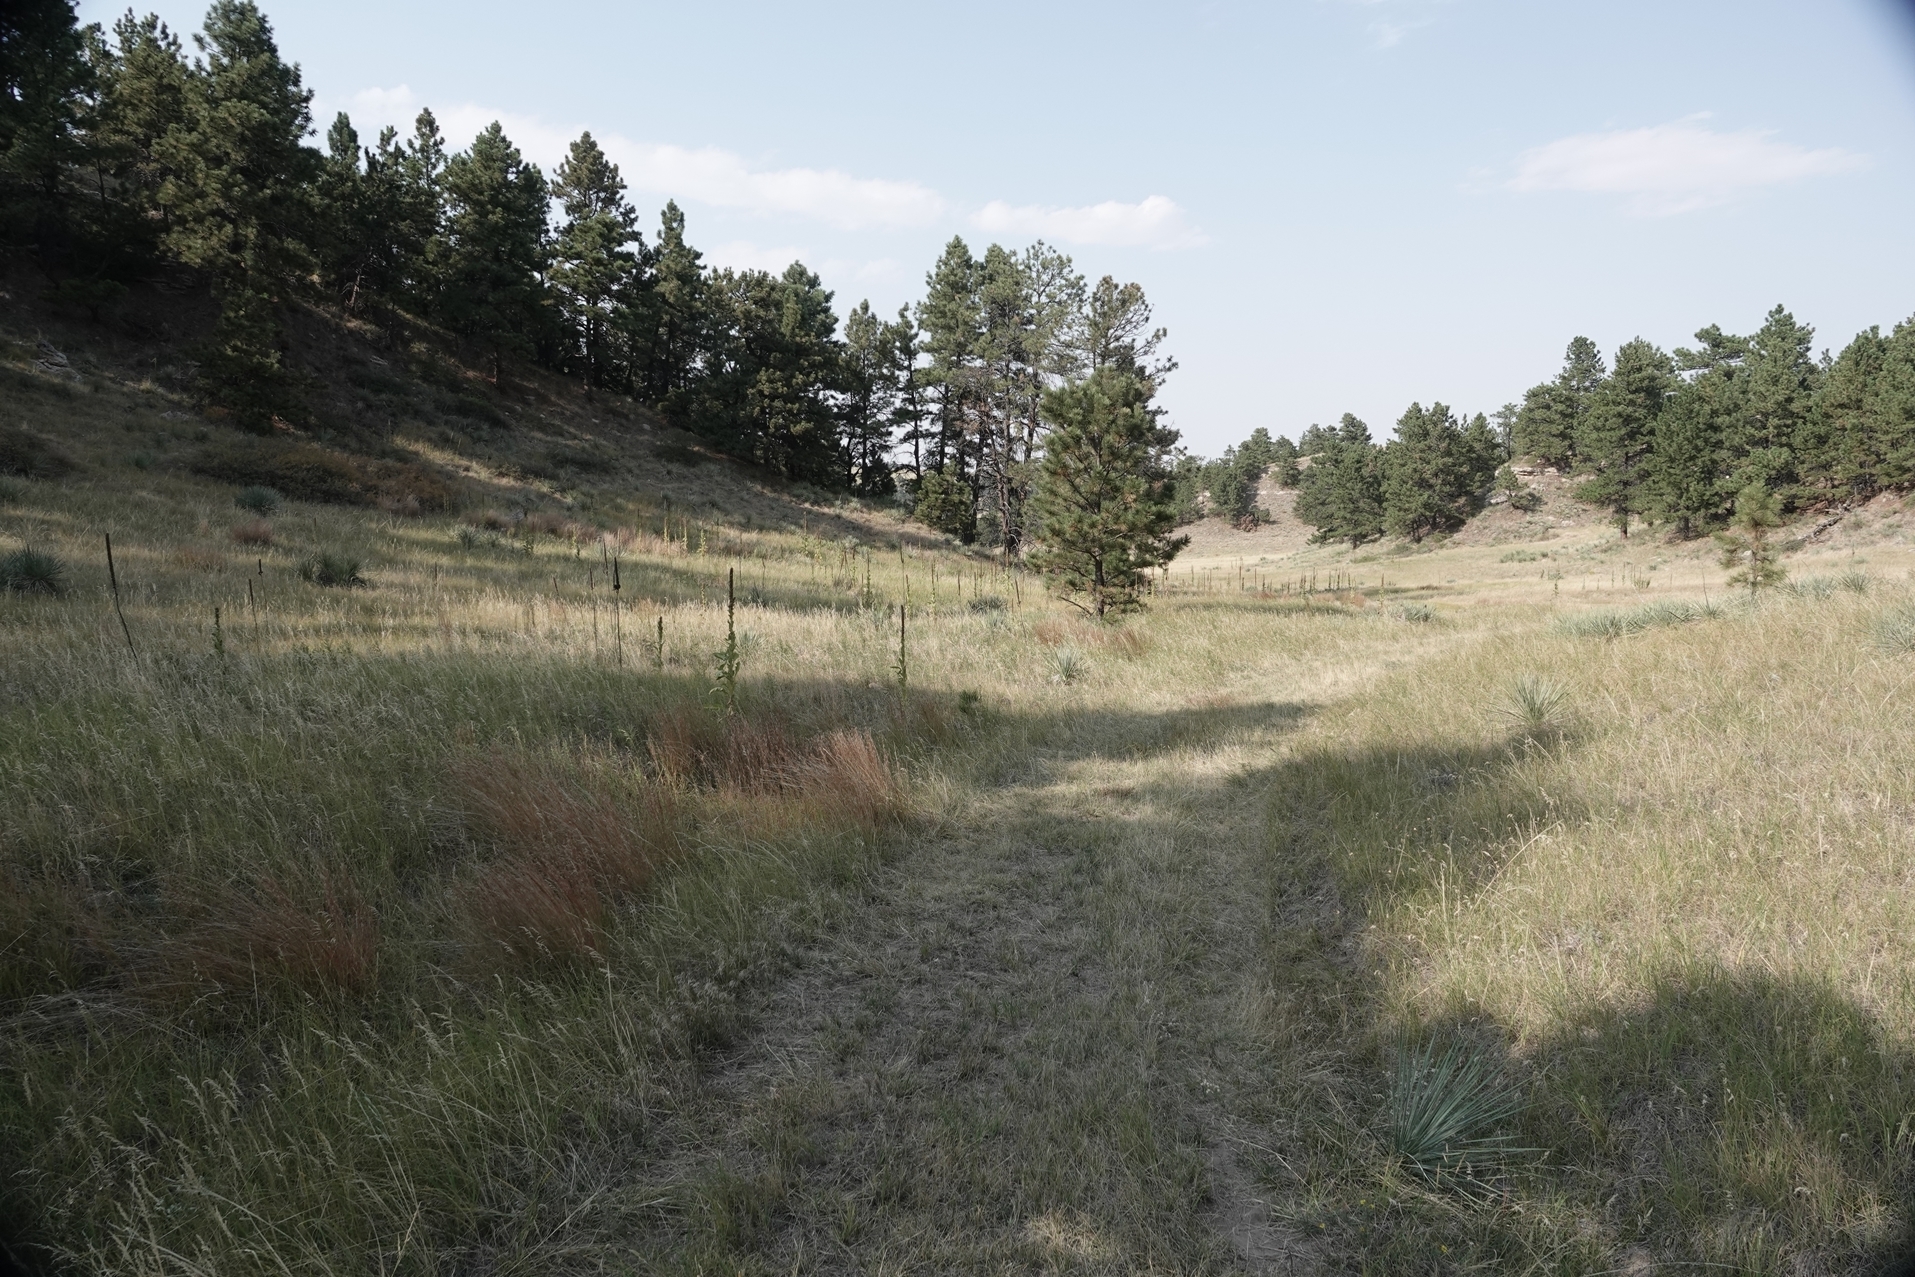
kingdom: Plantae
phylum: Tracheophyta
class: Magnoliopsida
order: Lamiales
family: Scrophulariaceae
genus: Verbascum
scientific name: Verbascum thapsus
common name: Common mullein
